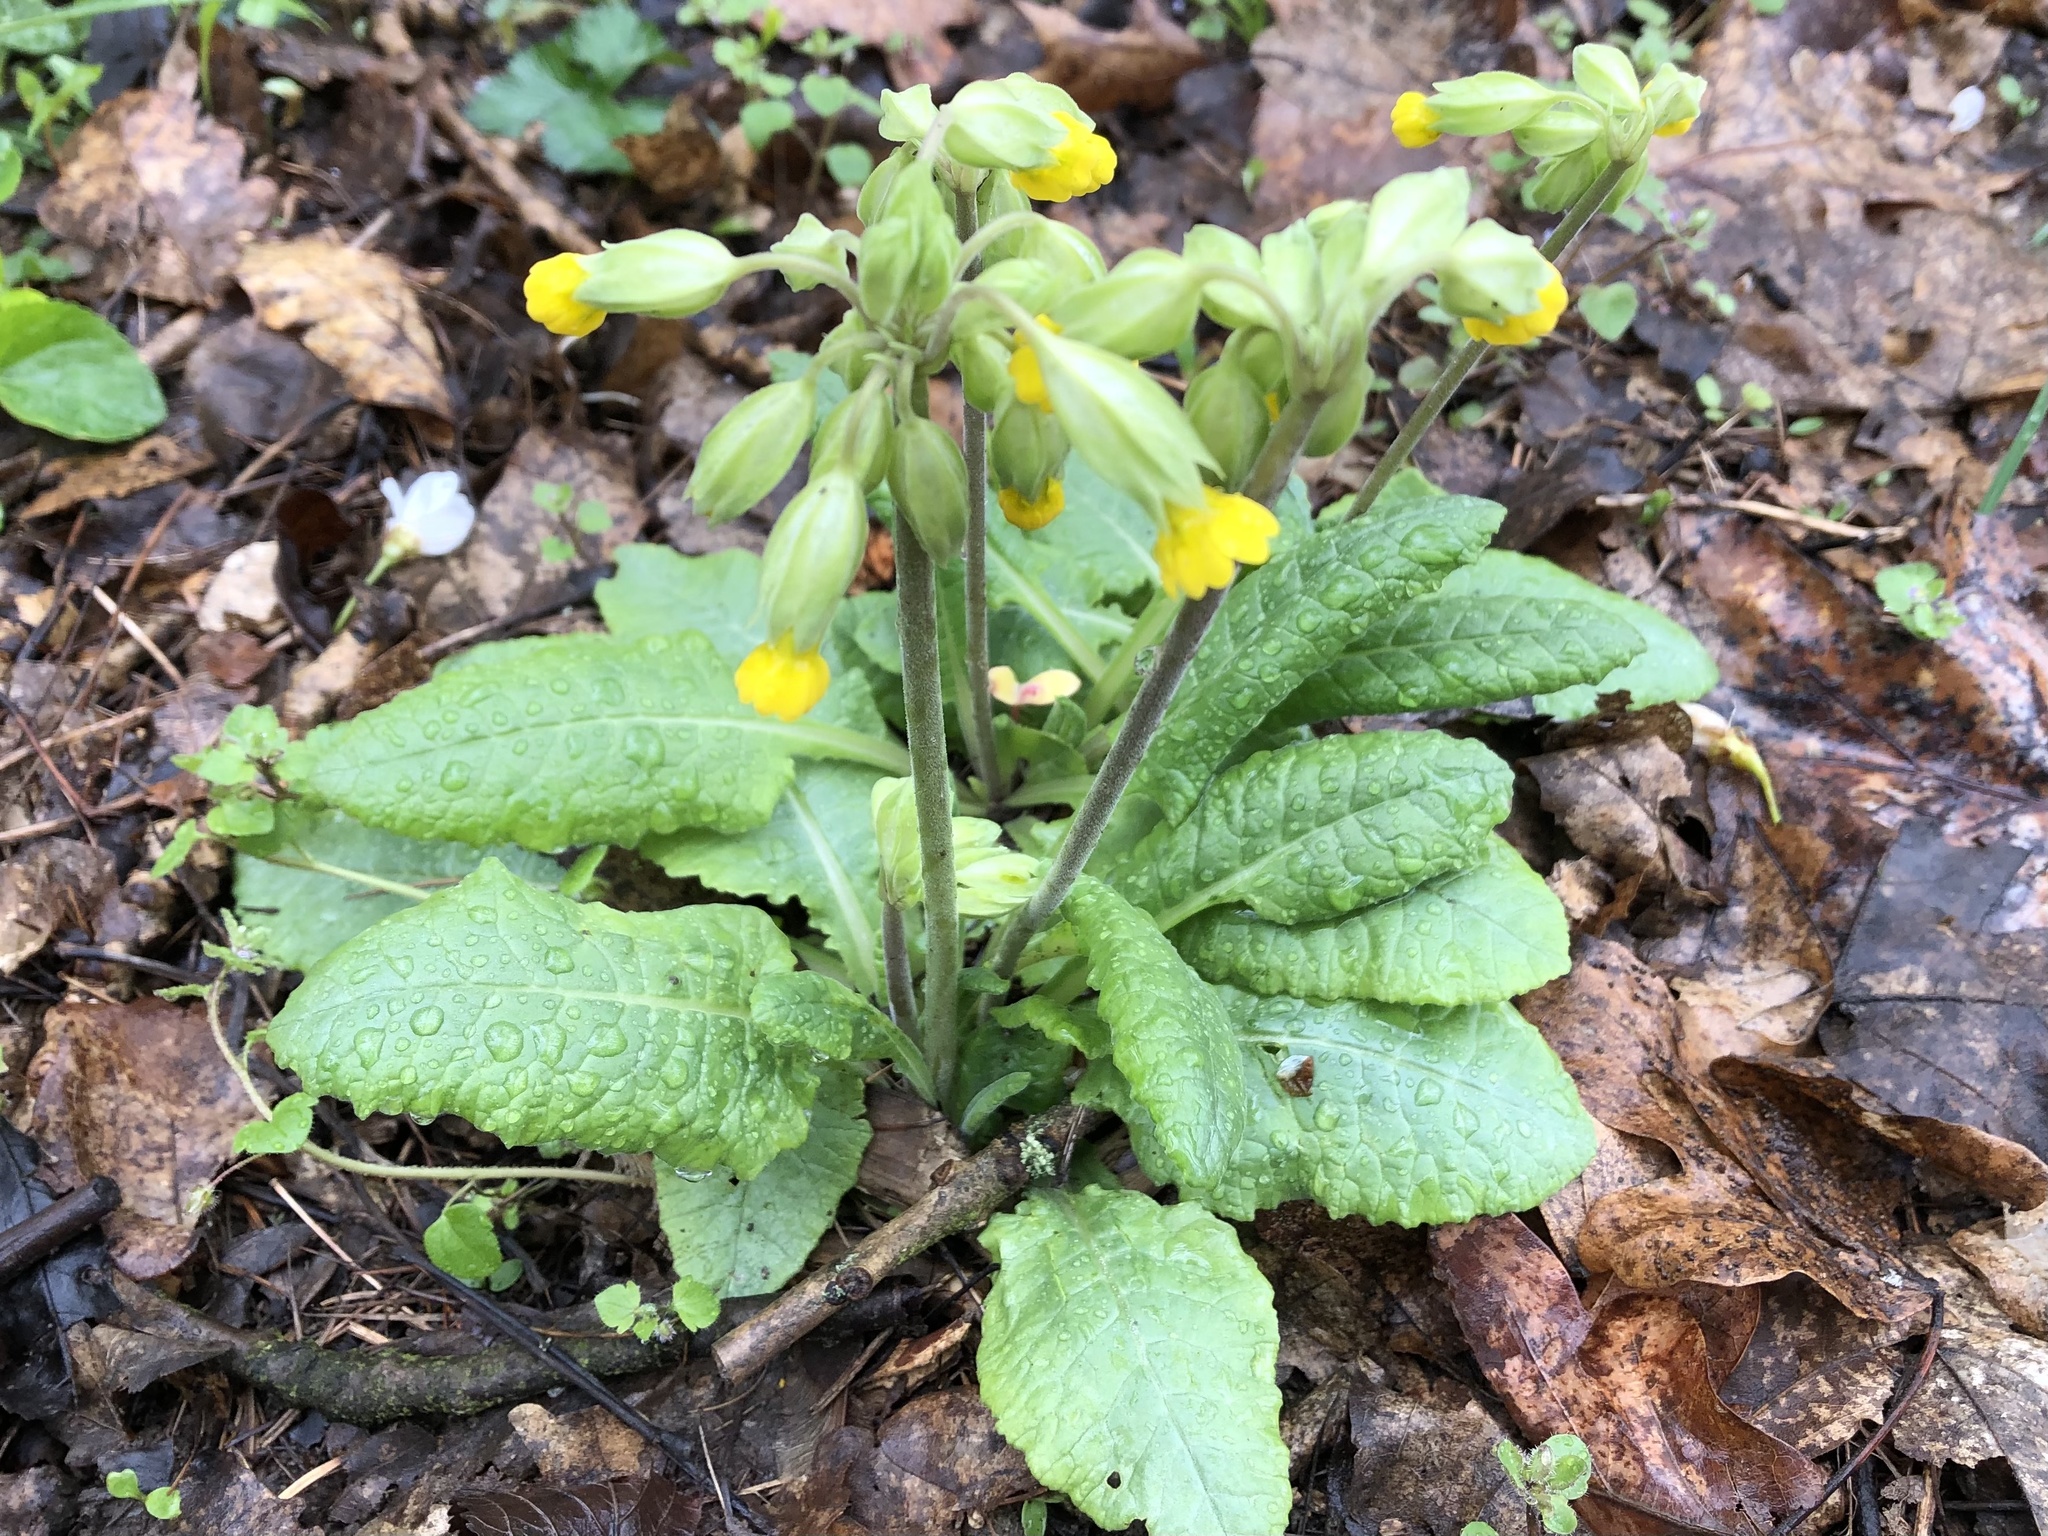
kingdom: Plantae
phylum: Tracheophyta
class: Magnoliopsida
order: Ericales
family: Primulaceae
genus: Primula
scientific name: Primula veris
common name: Cowslip
